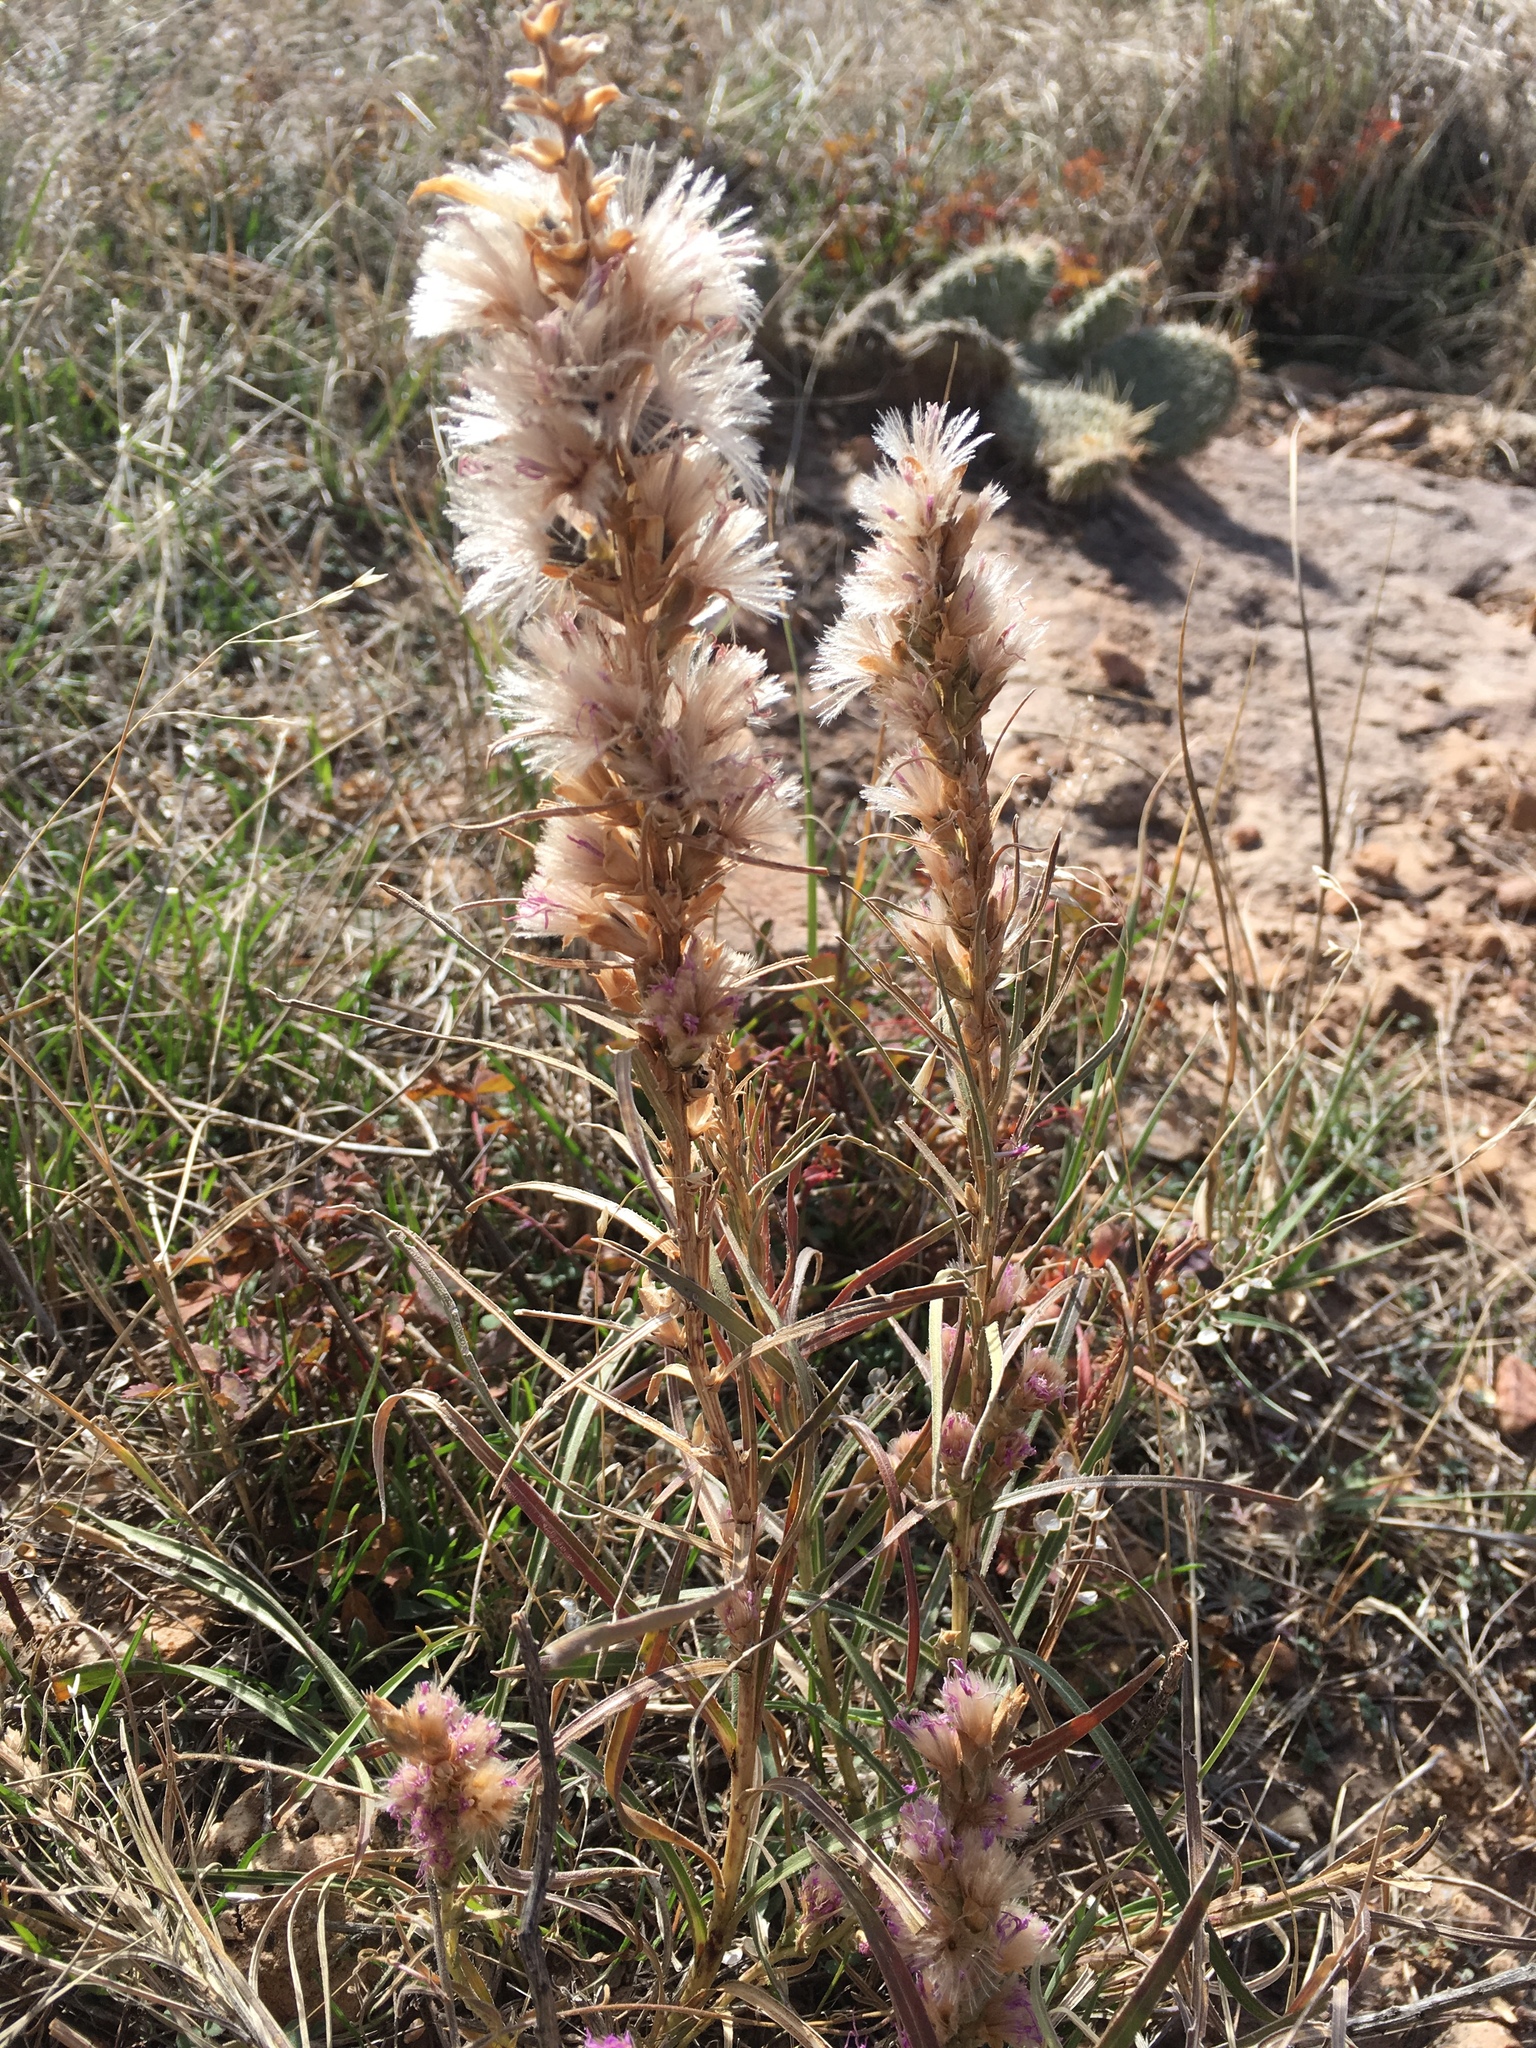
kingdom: Plantae
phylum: Tracheophyta
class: Magnoliopsida
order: Asterales
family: Asteraceae
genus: Liatris
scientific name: Liatris punctata
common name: Dotted gayfeather
